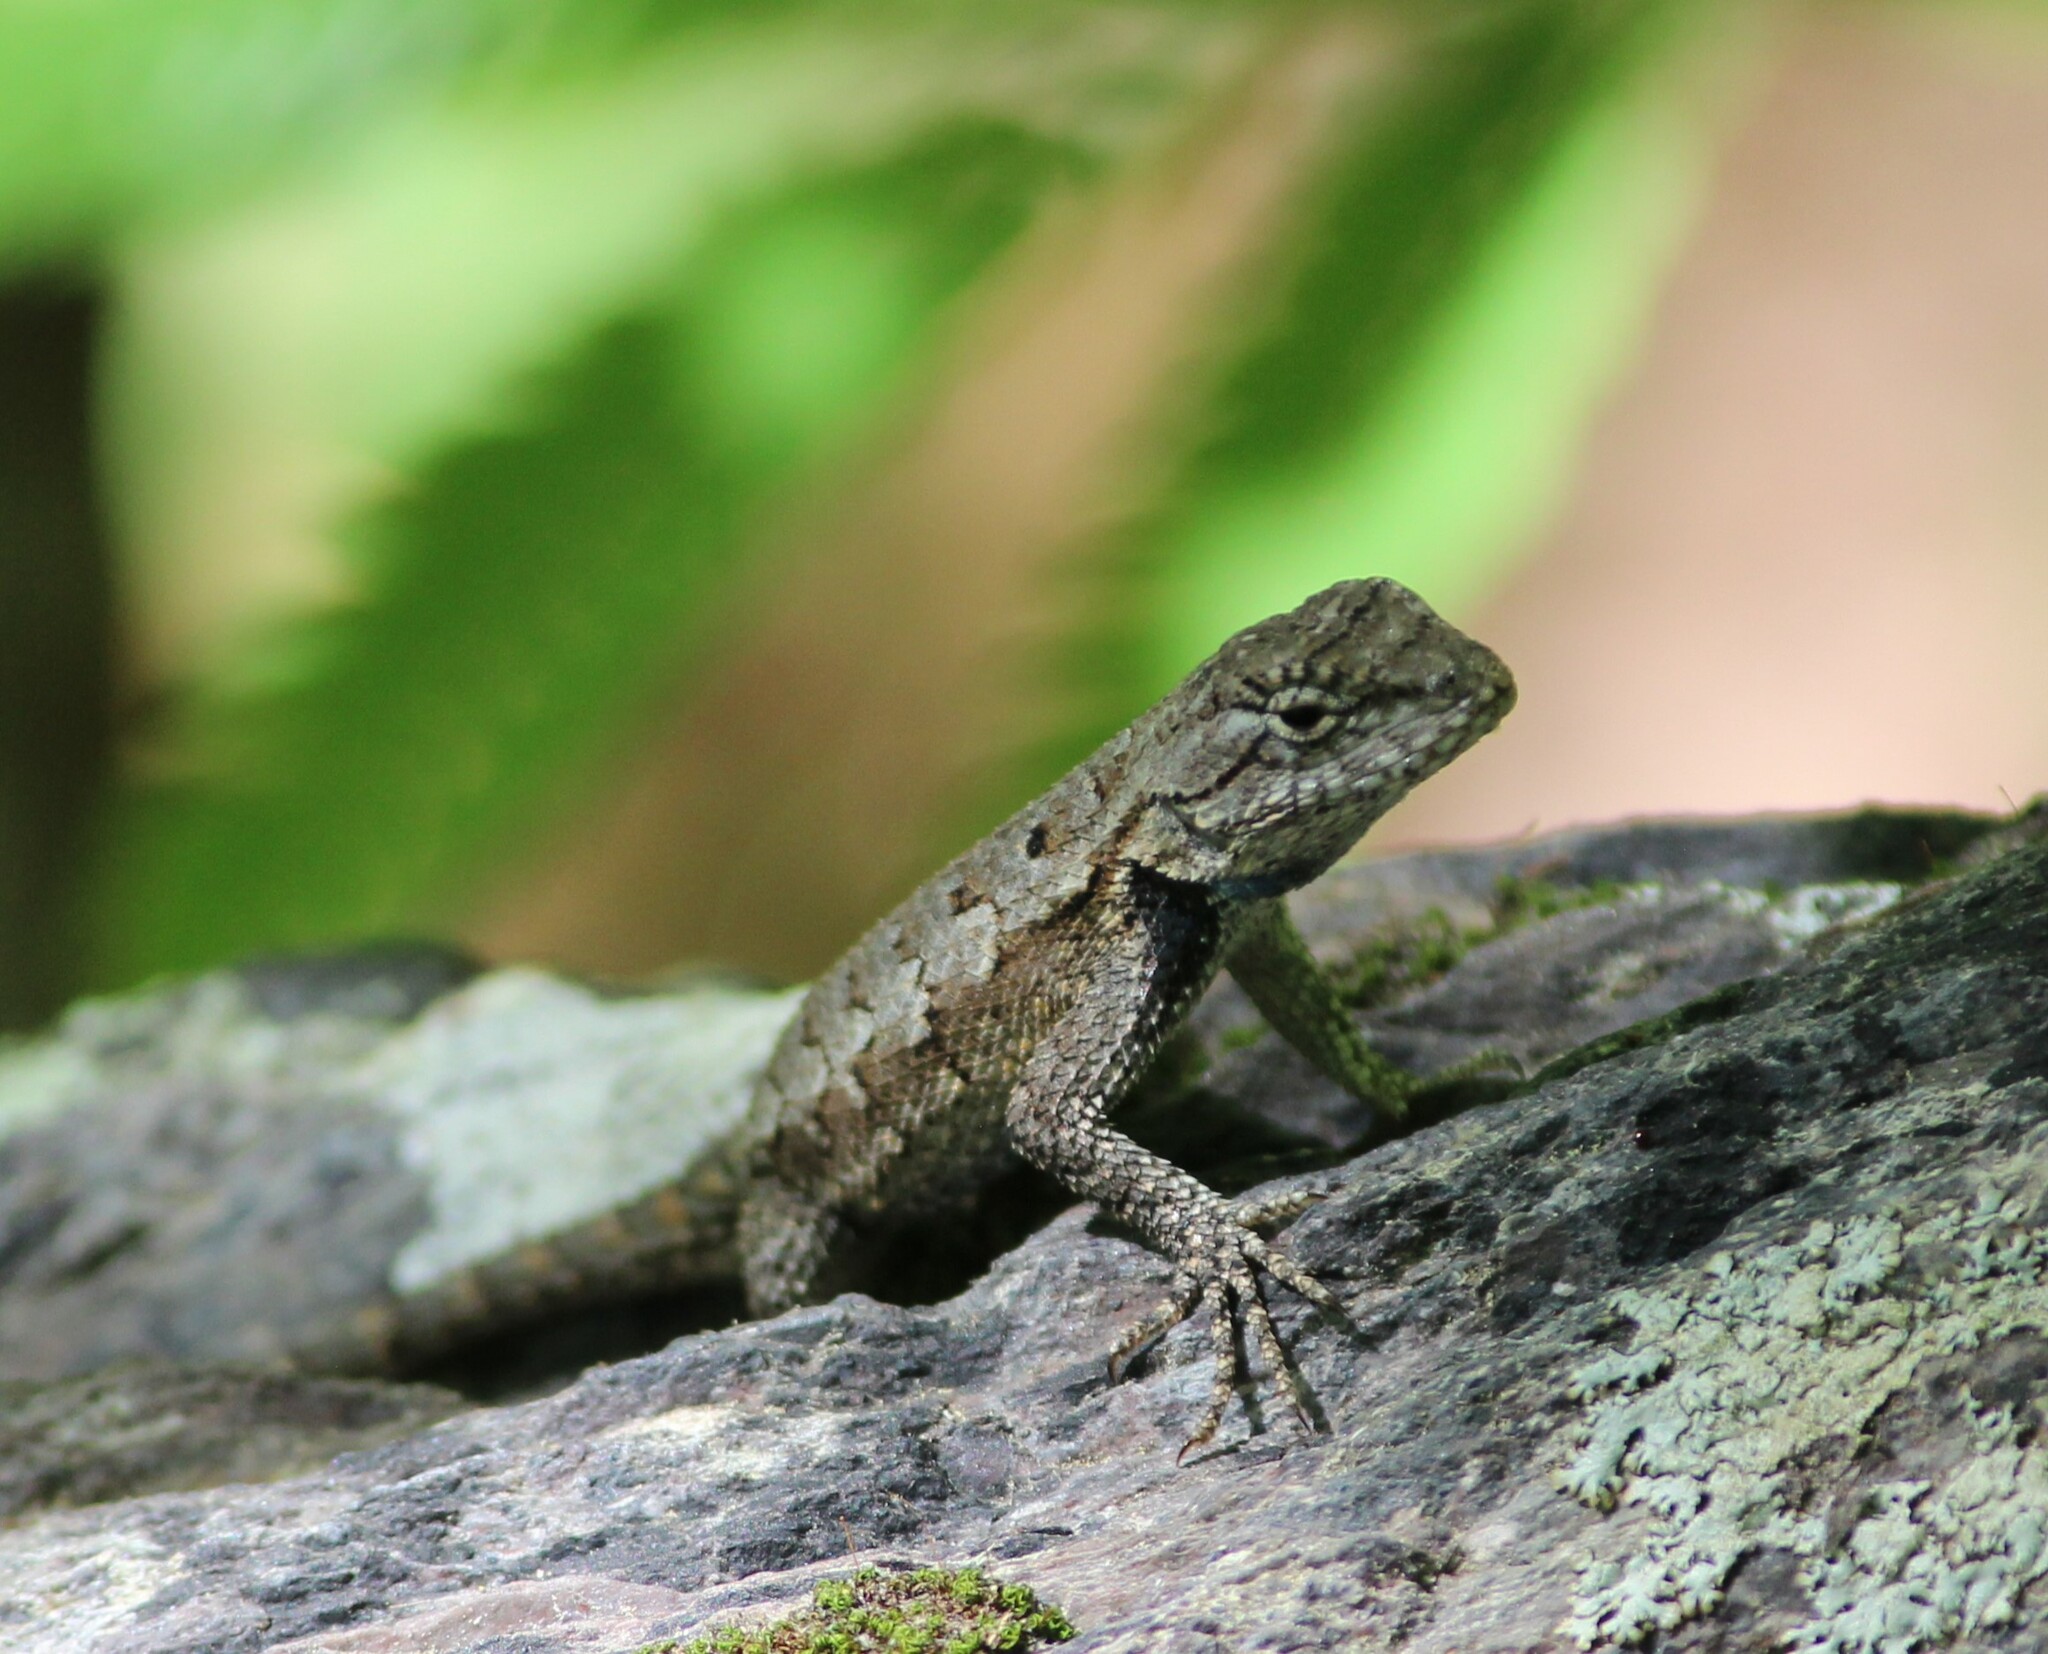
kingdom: Animalia
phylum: Chordata
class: Squamata
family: Phrynosomatidae
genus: Sceloporus
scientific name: Sceloporus undulatus
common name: Eastern fence lizard
